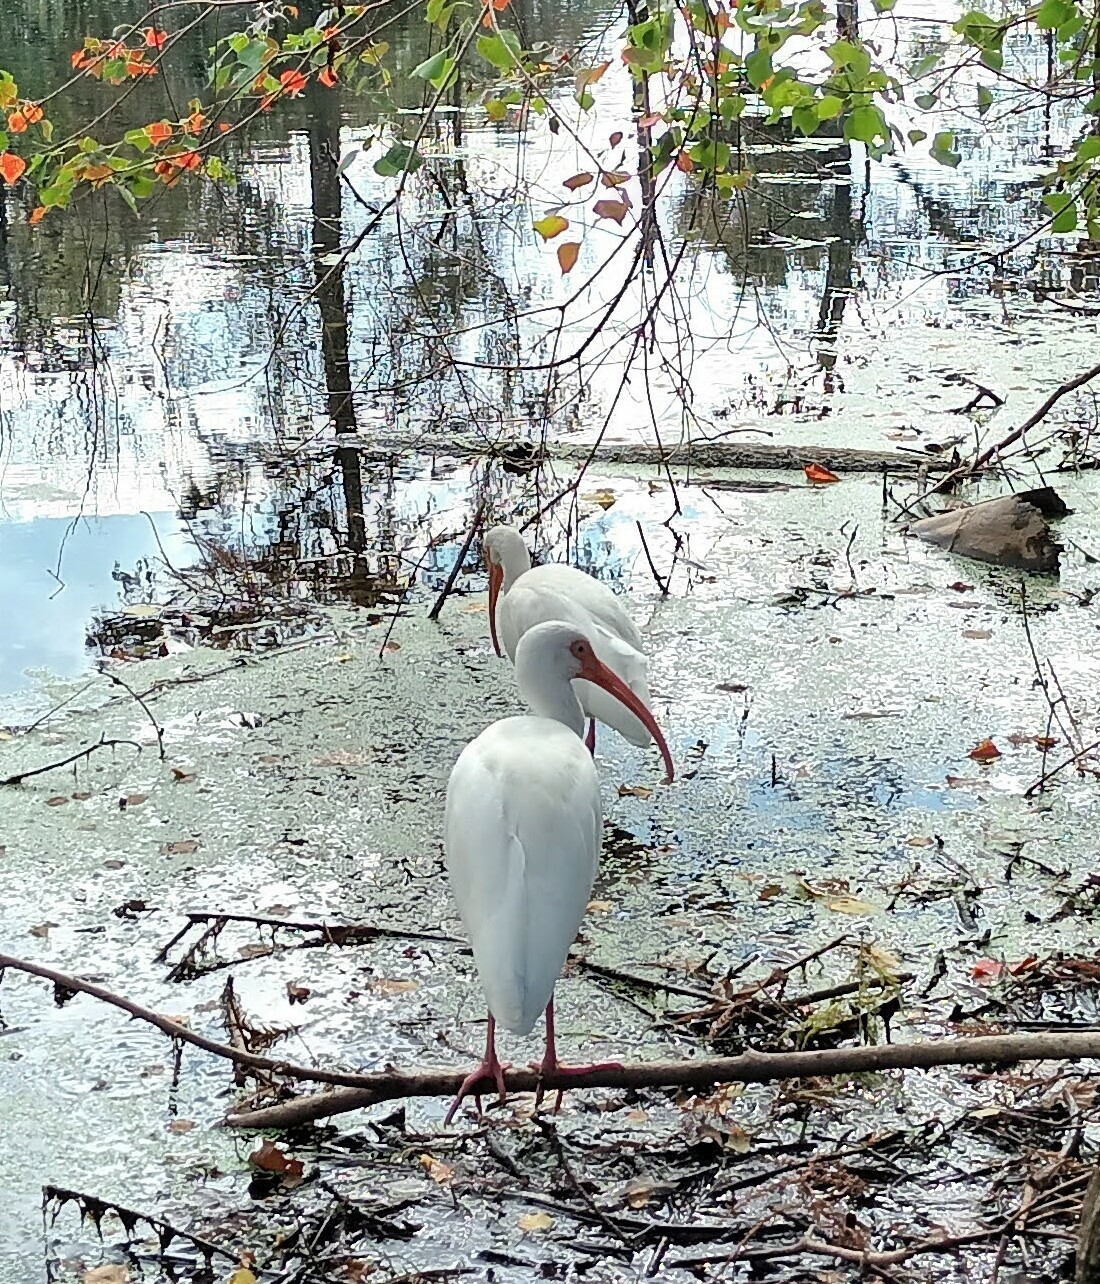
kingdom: Animalia
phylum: Chordata
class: Aves
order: Pelecaniformes
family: Threskiornithidae
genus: Eudocimus
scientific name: Eudocimus albus
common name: White ibis
